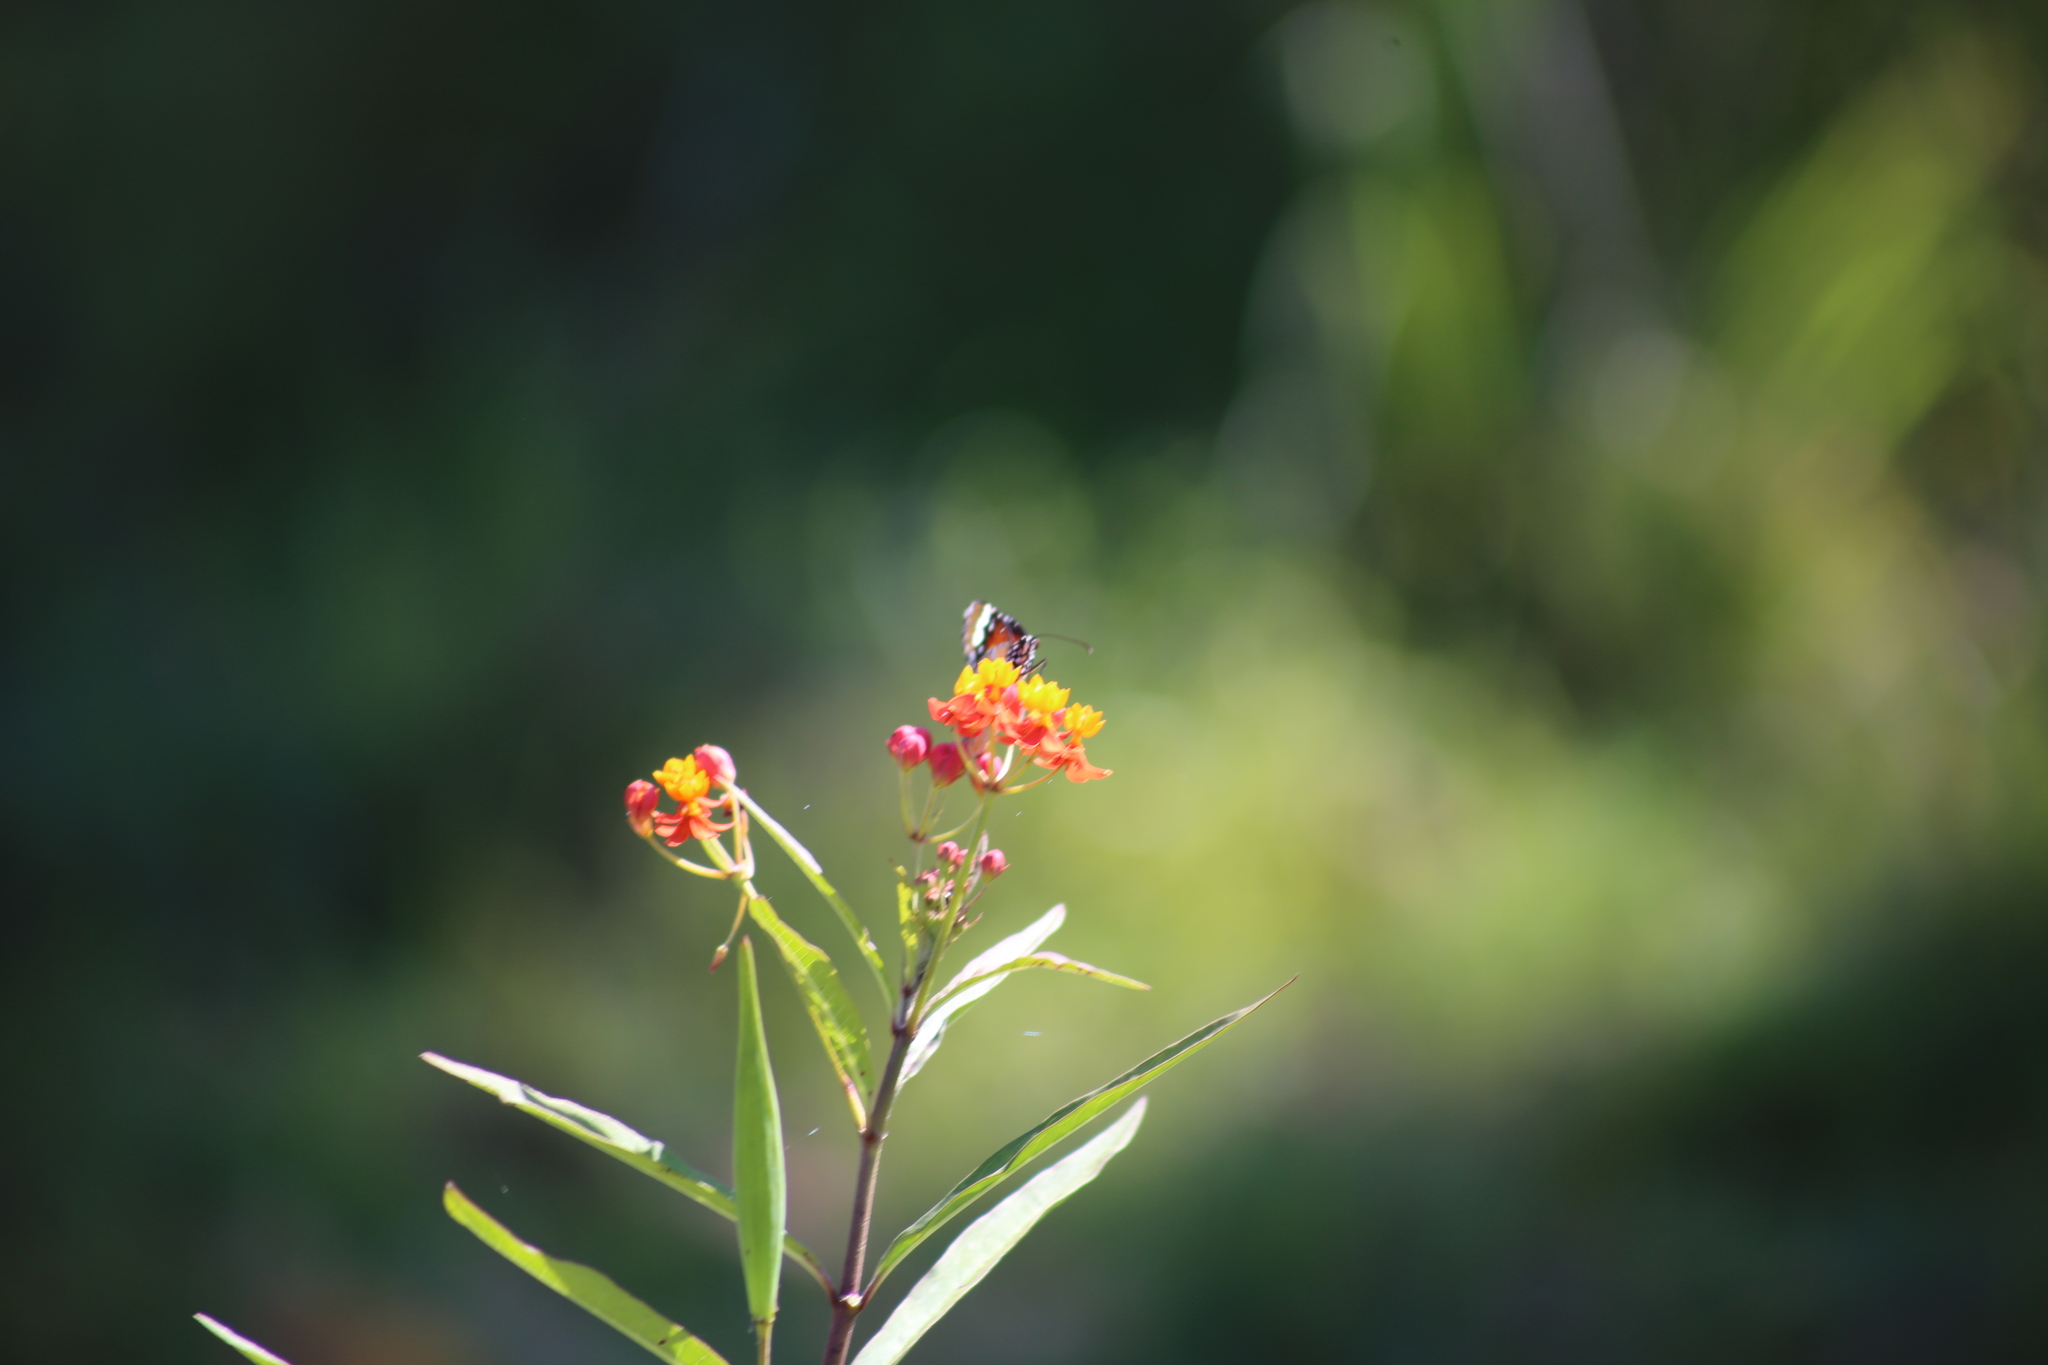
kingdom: Animalia
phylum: Arthropoda
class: Insecta
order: Lepidoptera
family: Nymphalidae
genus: Danaus
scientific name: Danaus chrysippus
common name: Plain tiger
